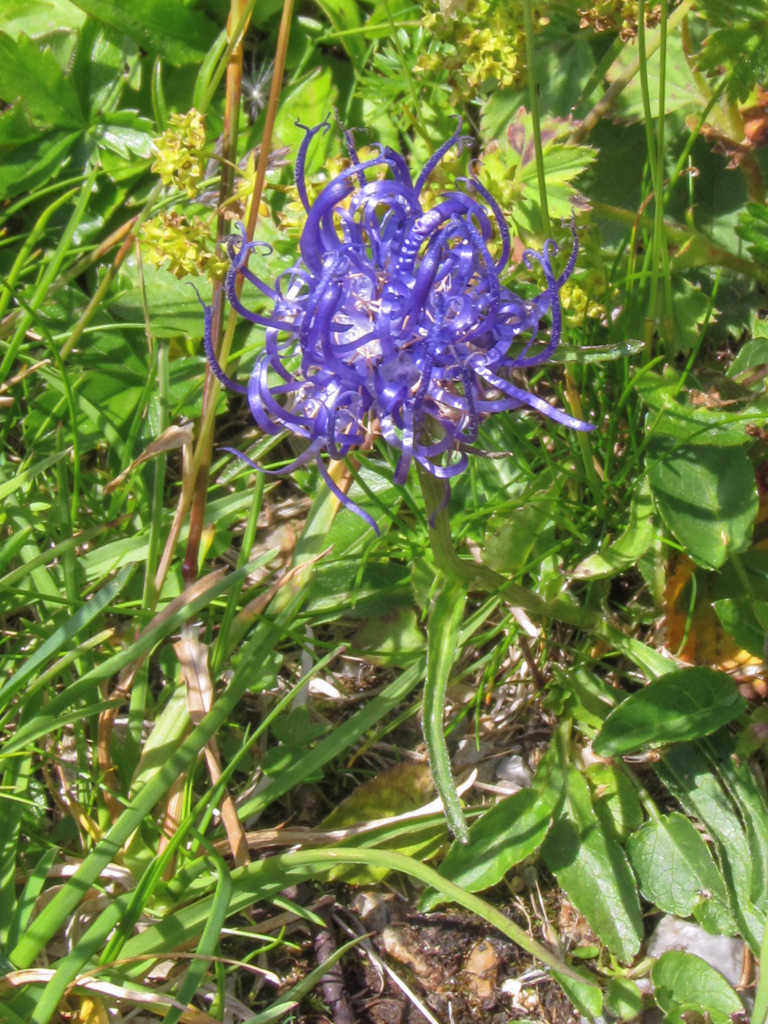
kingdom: Plantae
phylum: Tracheophyta
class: Magnoliopsida
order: Asterales
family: Campanulaceae
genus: Phyteuma
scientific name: Phyteuma orbiculare
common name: Round-headed rampion
